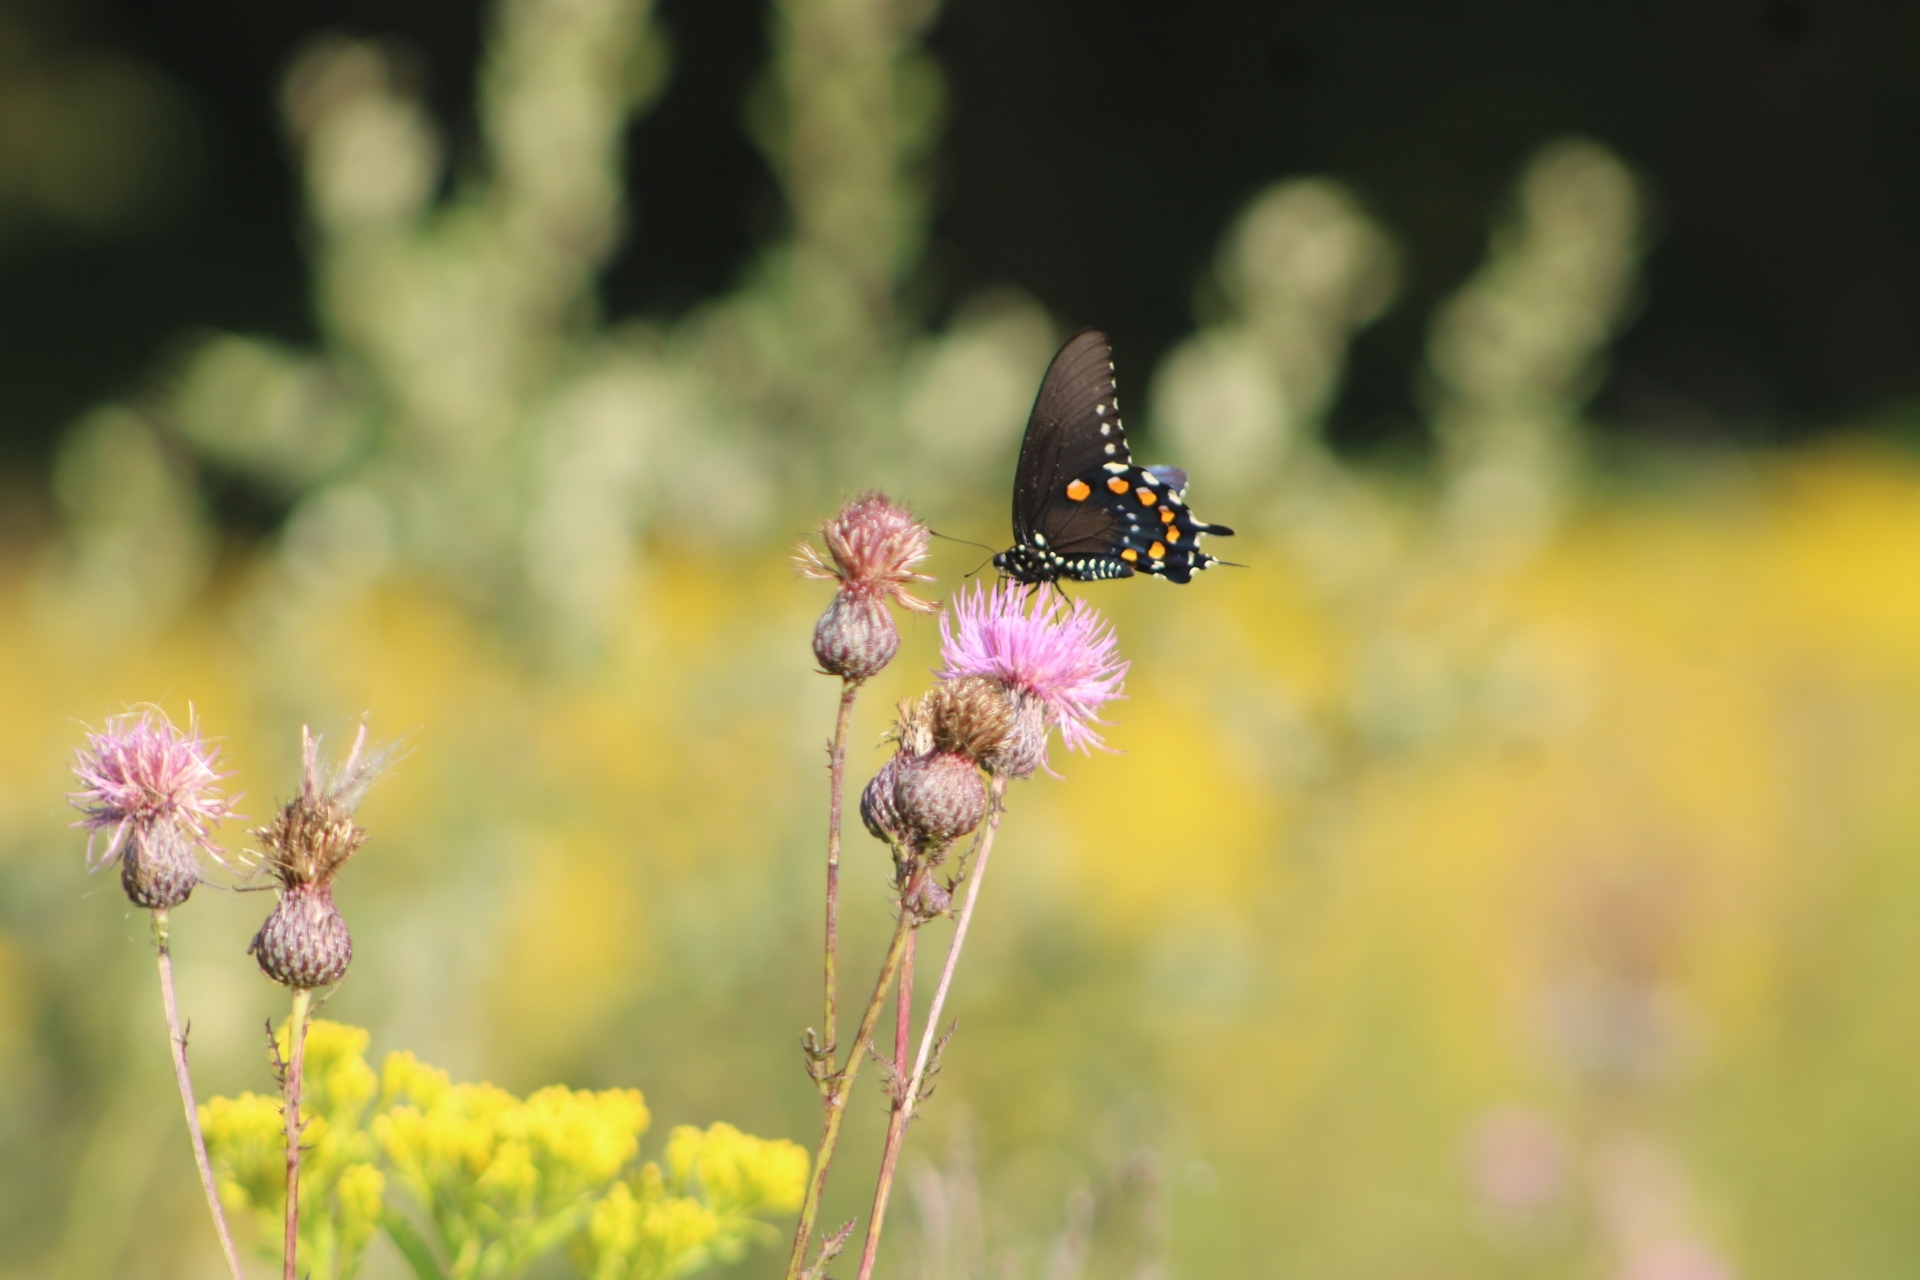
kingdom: Animalia
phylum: Arthropoda
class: Insecta
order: Lepidoptera
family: Papilionidae
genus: Battus
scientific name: Battus philenor
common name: Pipevine swallowtail
